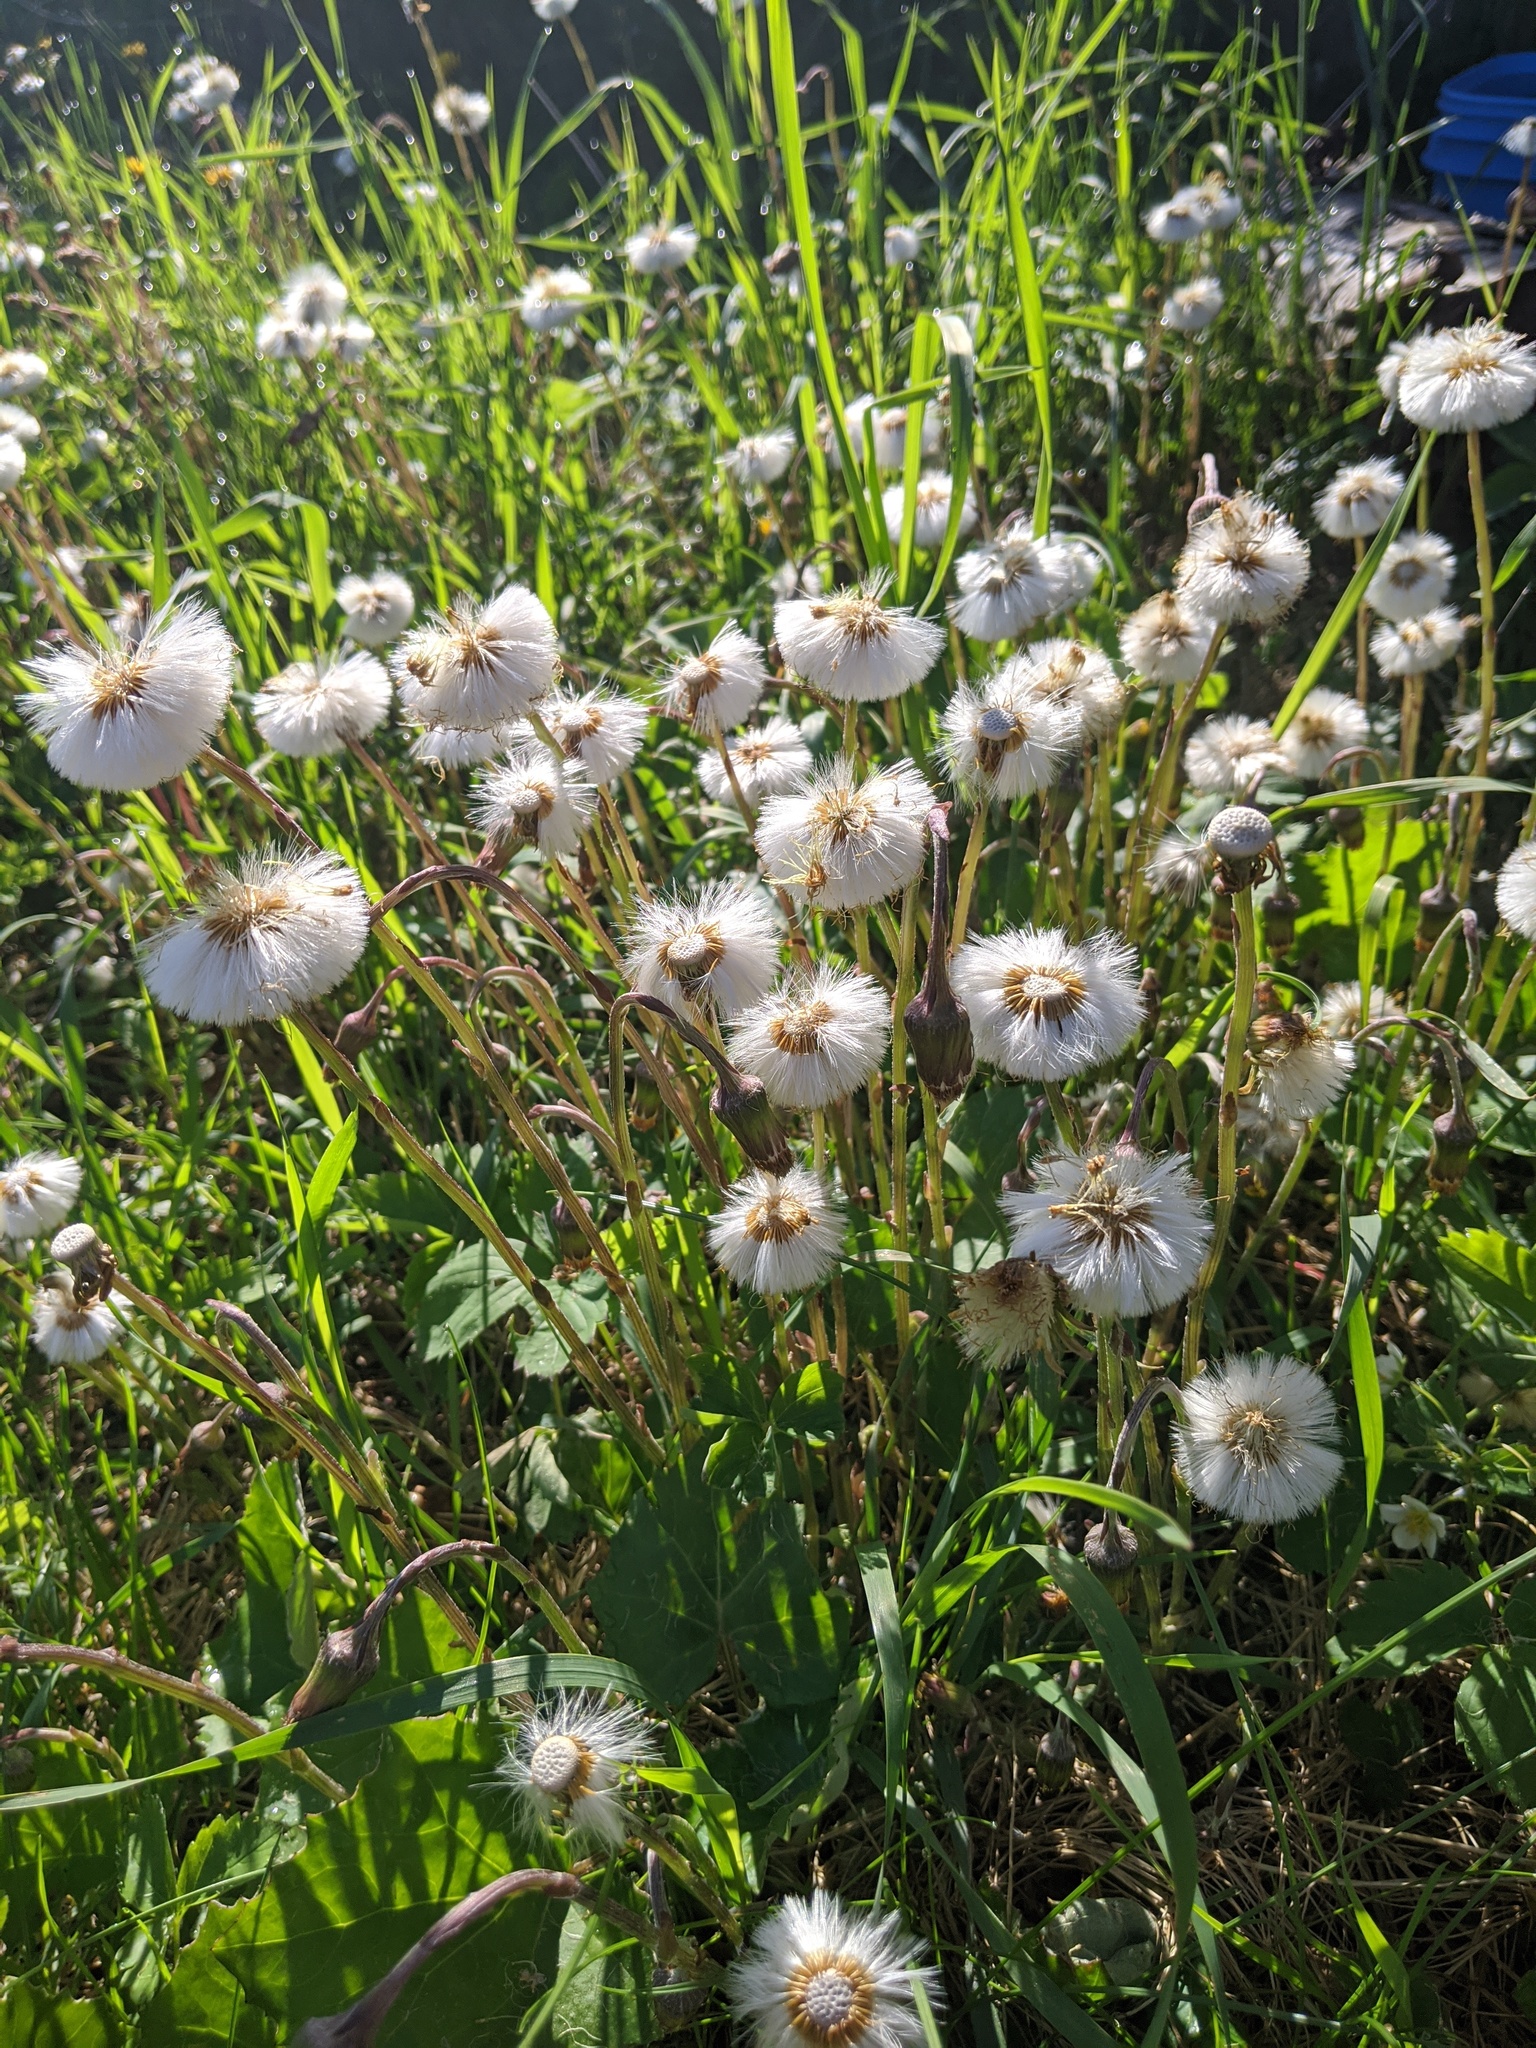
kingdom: Plantae
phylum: Tracheophyta
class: Magnoliopsida
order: Asterales
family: Asteraceae
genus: Tussilago
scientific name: Tussilago farfara
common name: Coltsfoot
